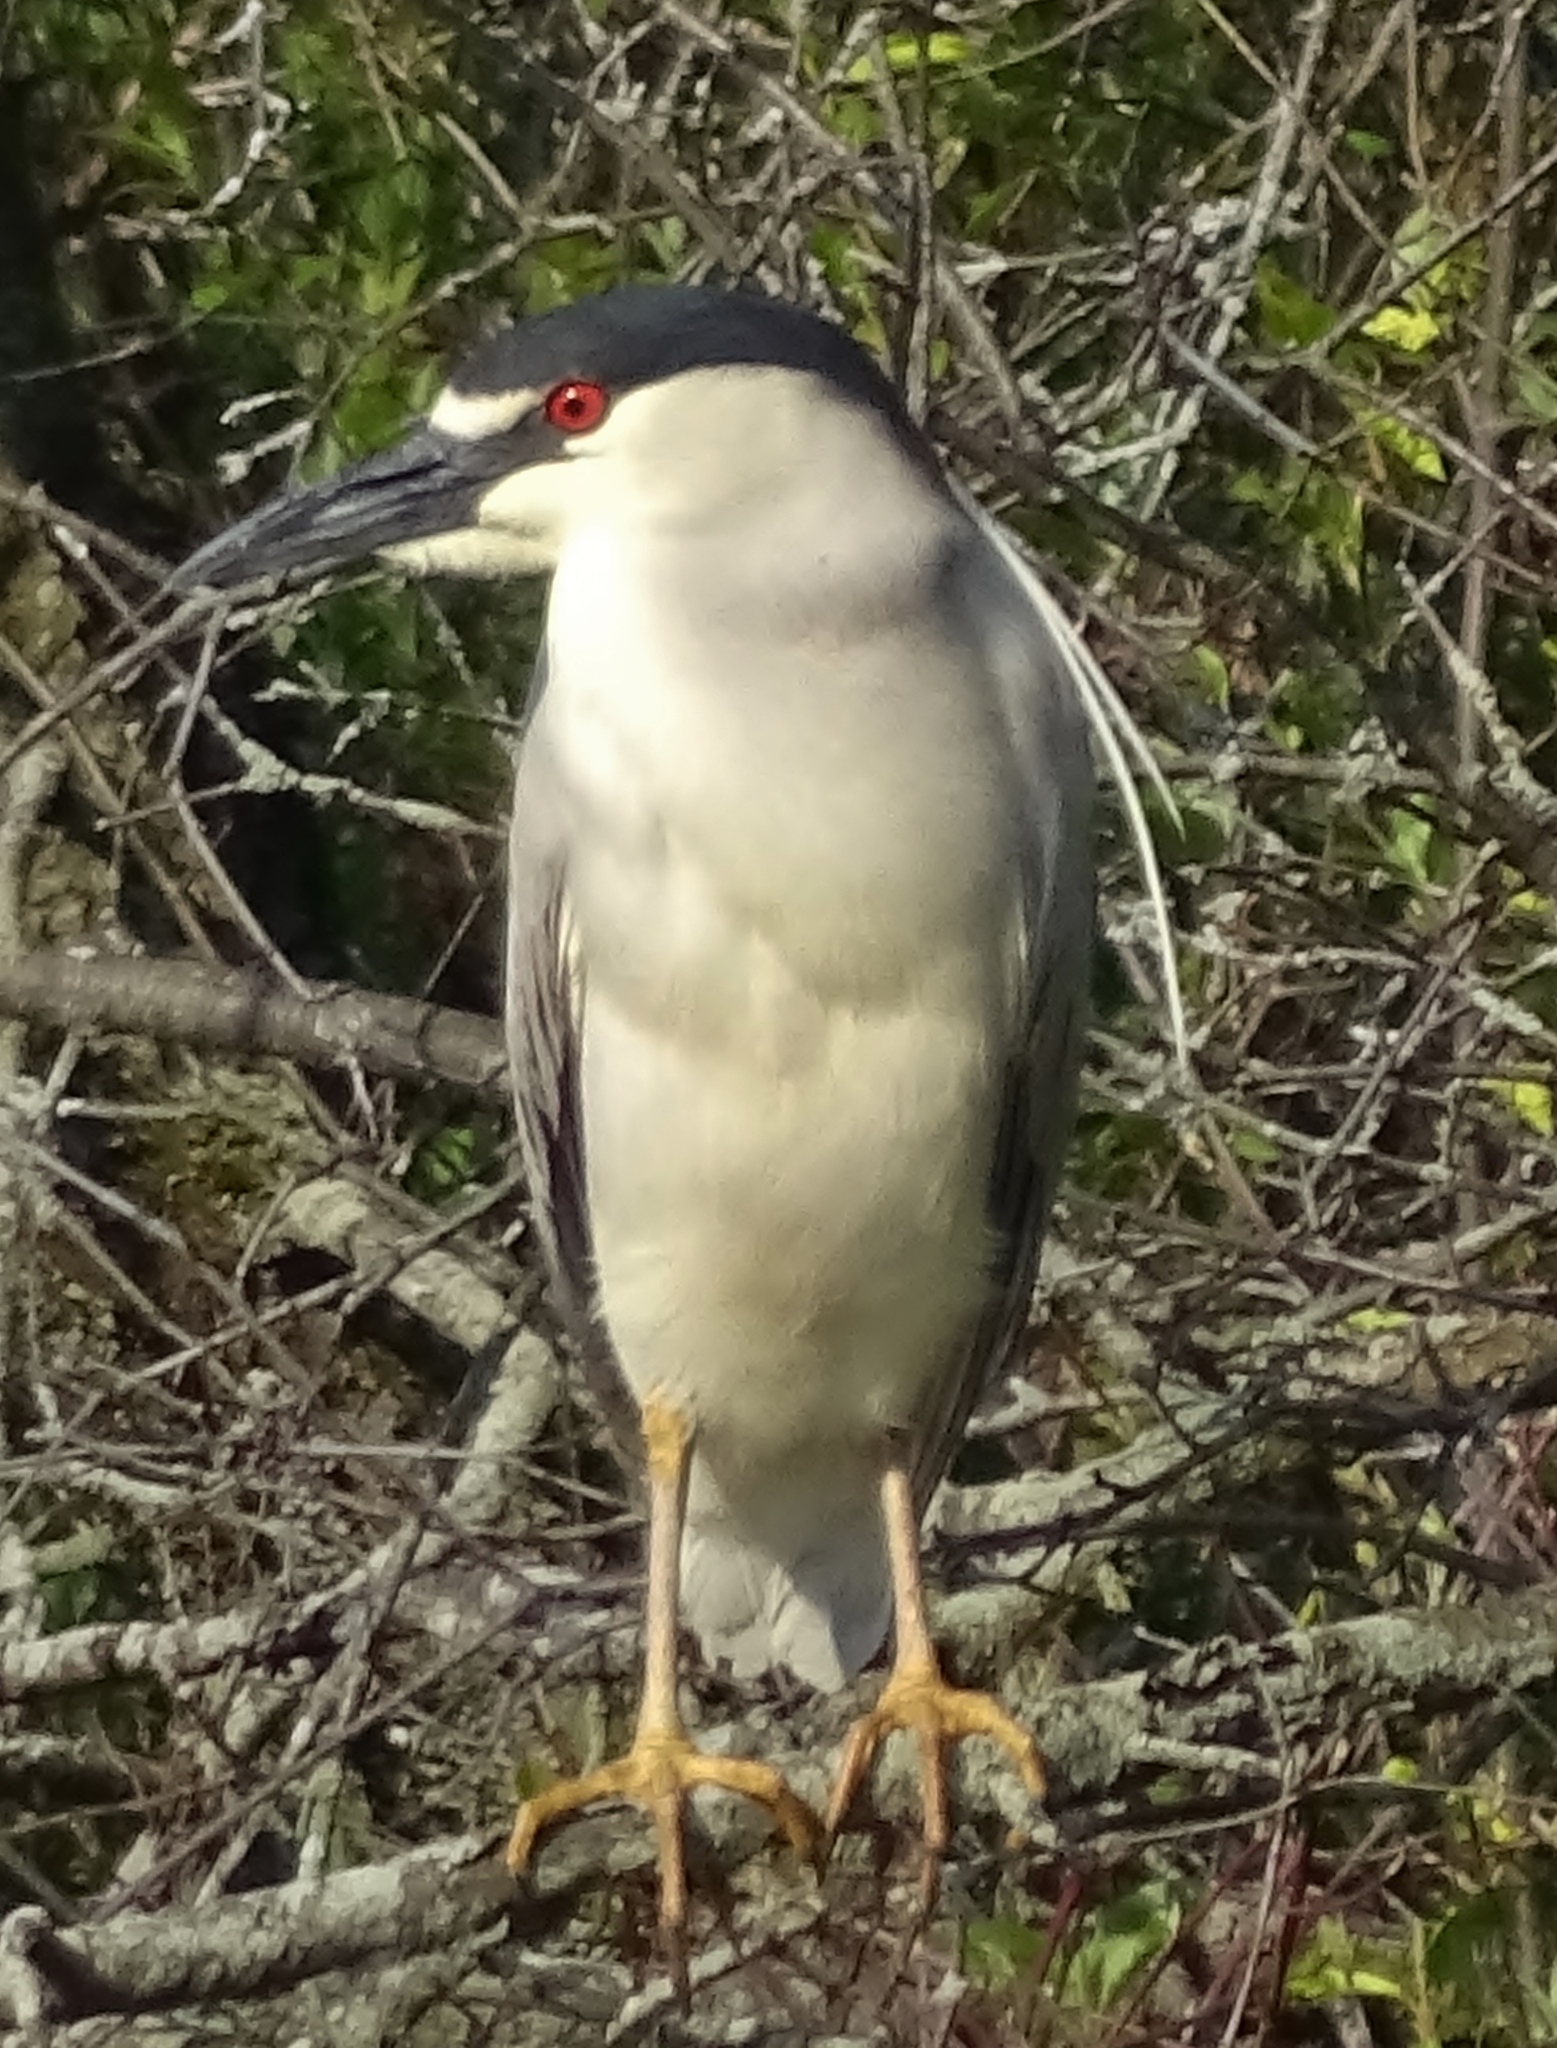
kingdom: Animalia
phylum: Chordata
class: Aves
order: Pelecaniformes
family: Ardeidae
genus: Nycticorax
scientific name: Nycticorax nycticorax
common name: Black-crowned night heron
